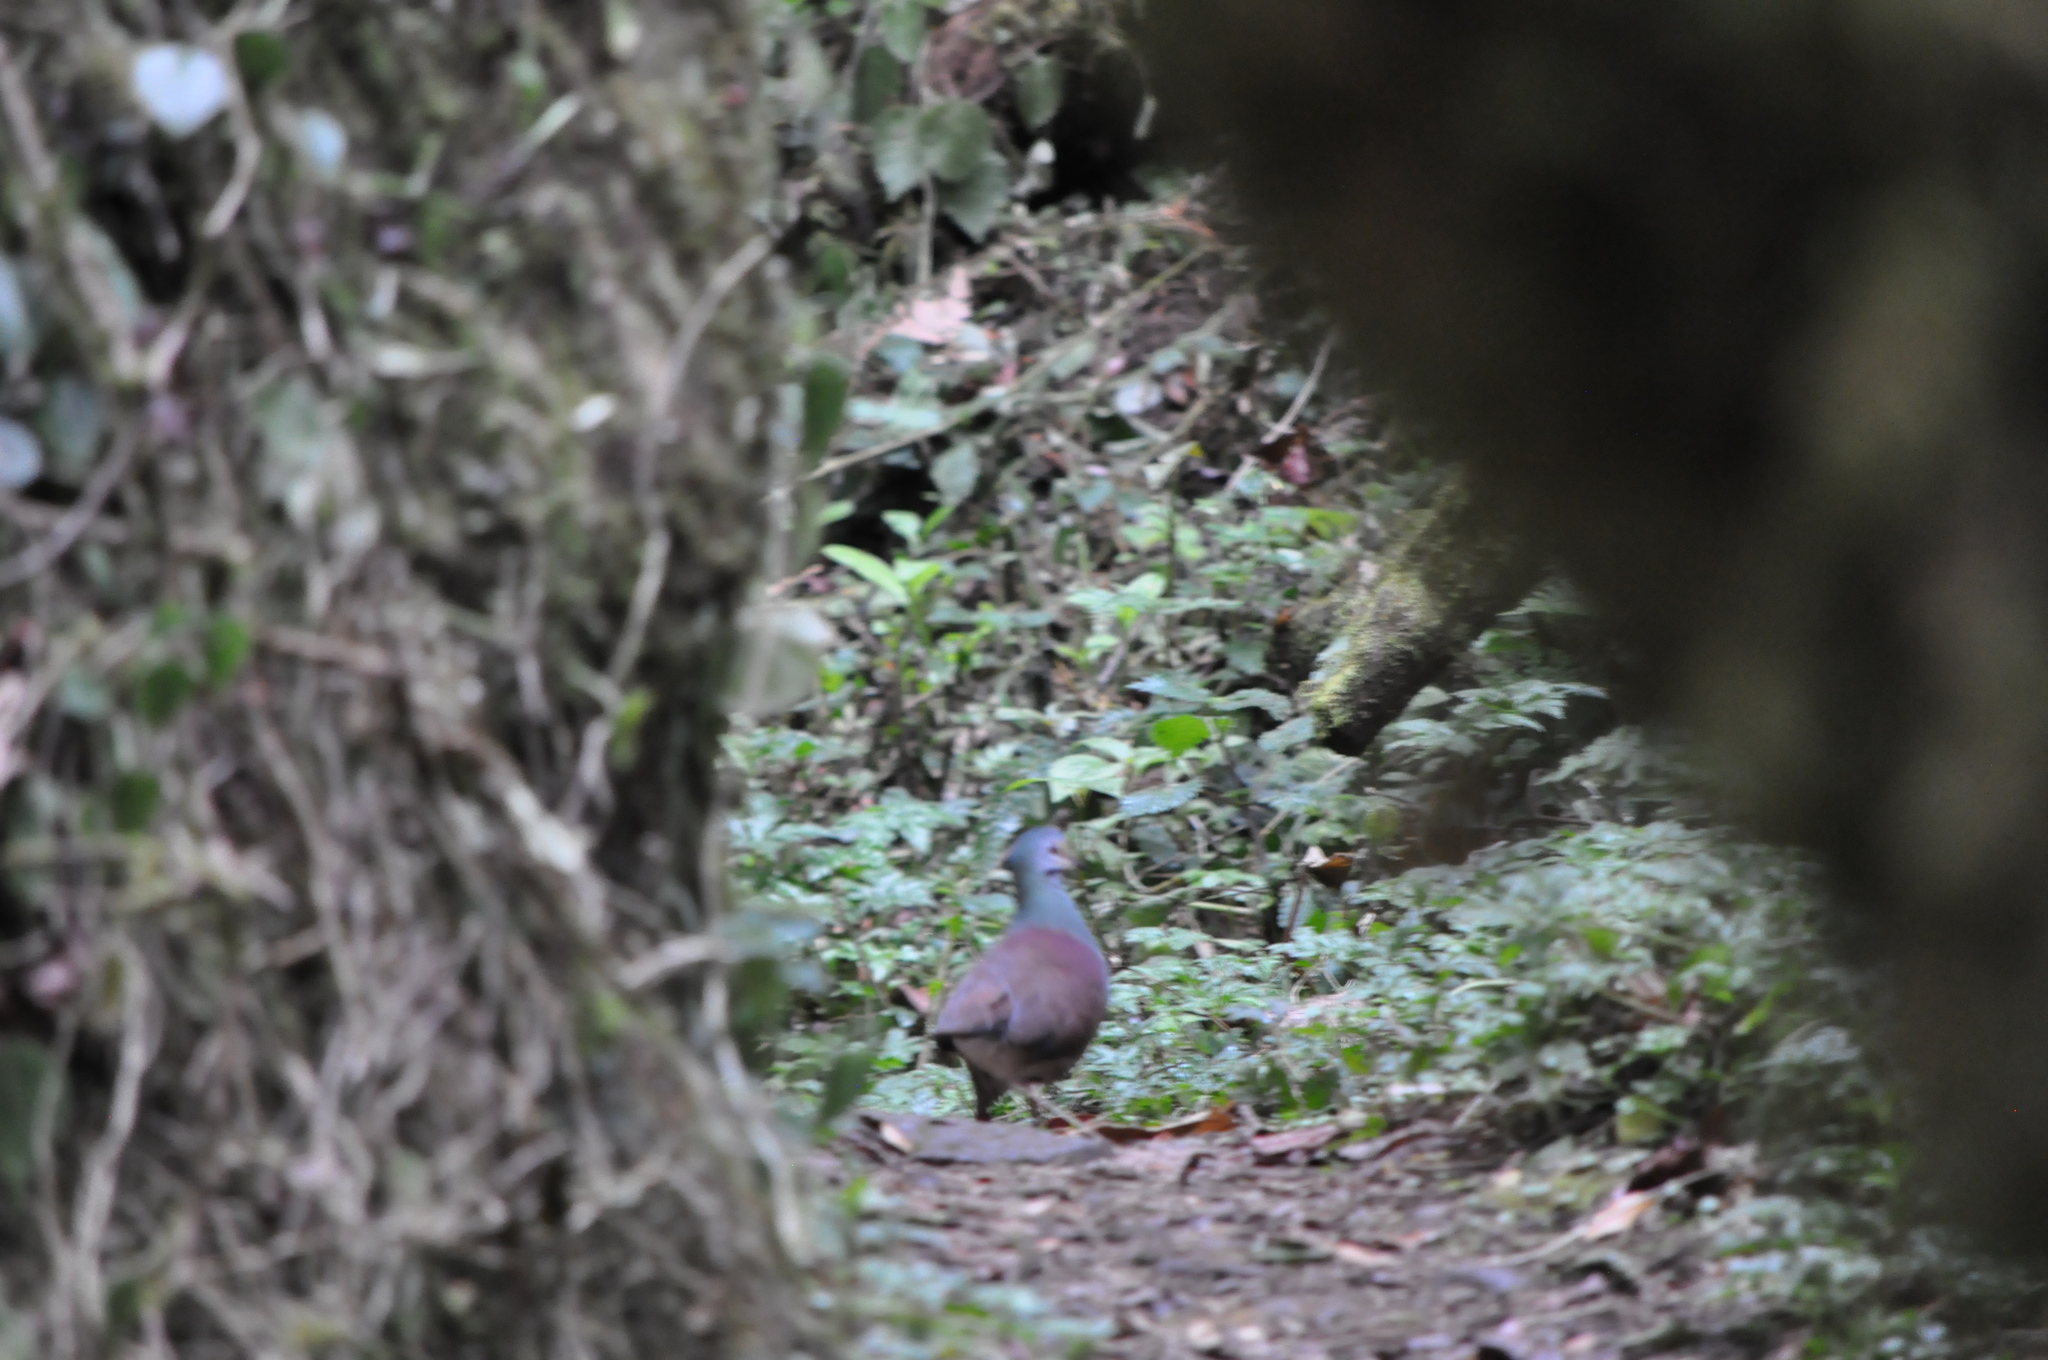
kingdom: Animalia
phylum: Chordata
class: Aves
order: Columbiformes
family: Columbidae
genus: Zentrygon
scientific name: Zentrygon costaricensis
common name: Buff-fronted quail-dove
